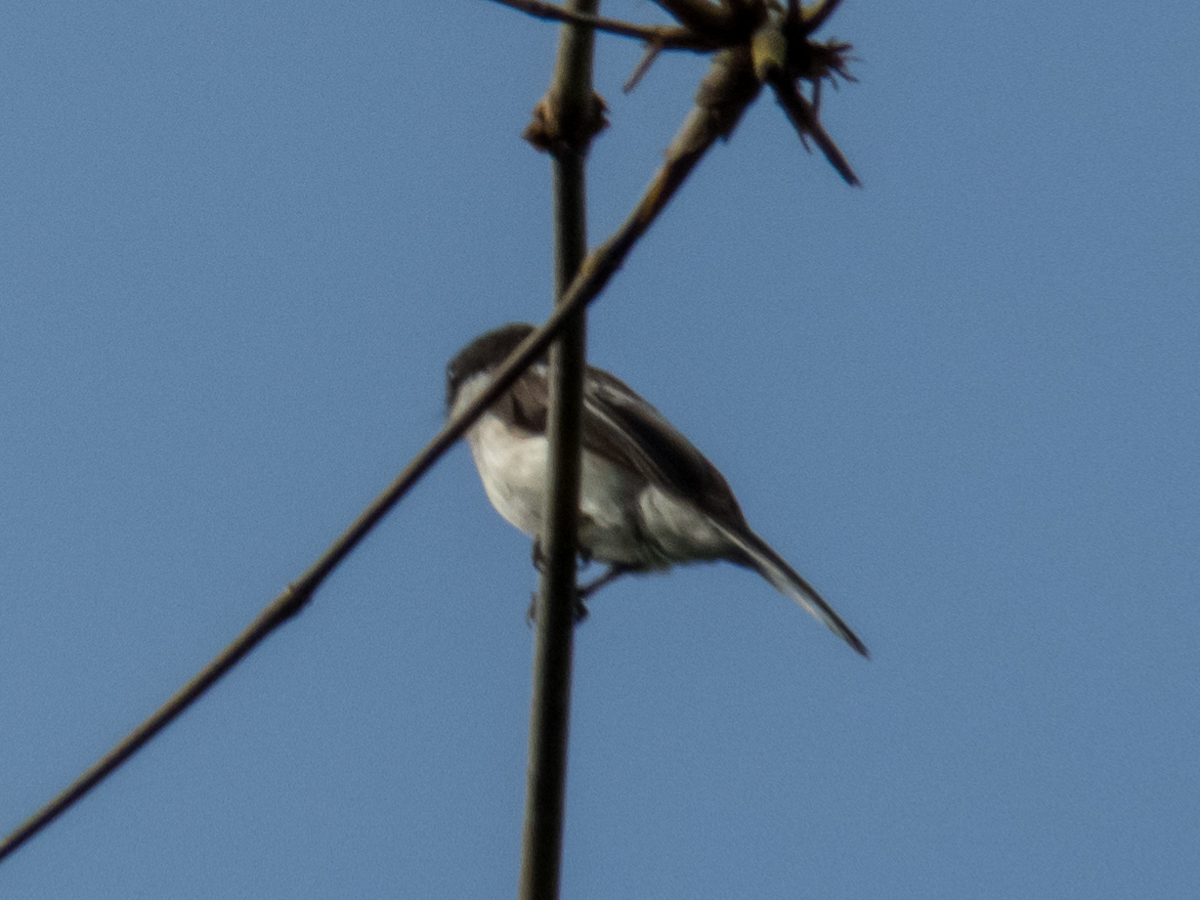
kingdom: Animalia
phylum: Chordata
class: Aves
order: Passeriformes
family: Tephrodornithidae
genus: Hemipus
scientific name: Hemipus picatus
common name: Bar-winged flycatcher-shrike
